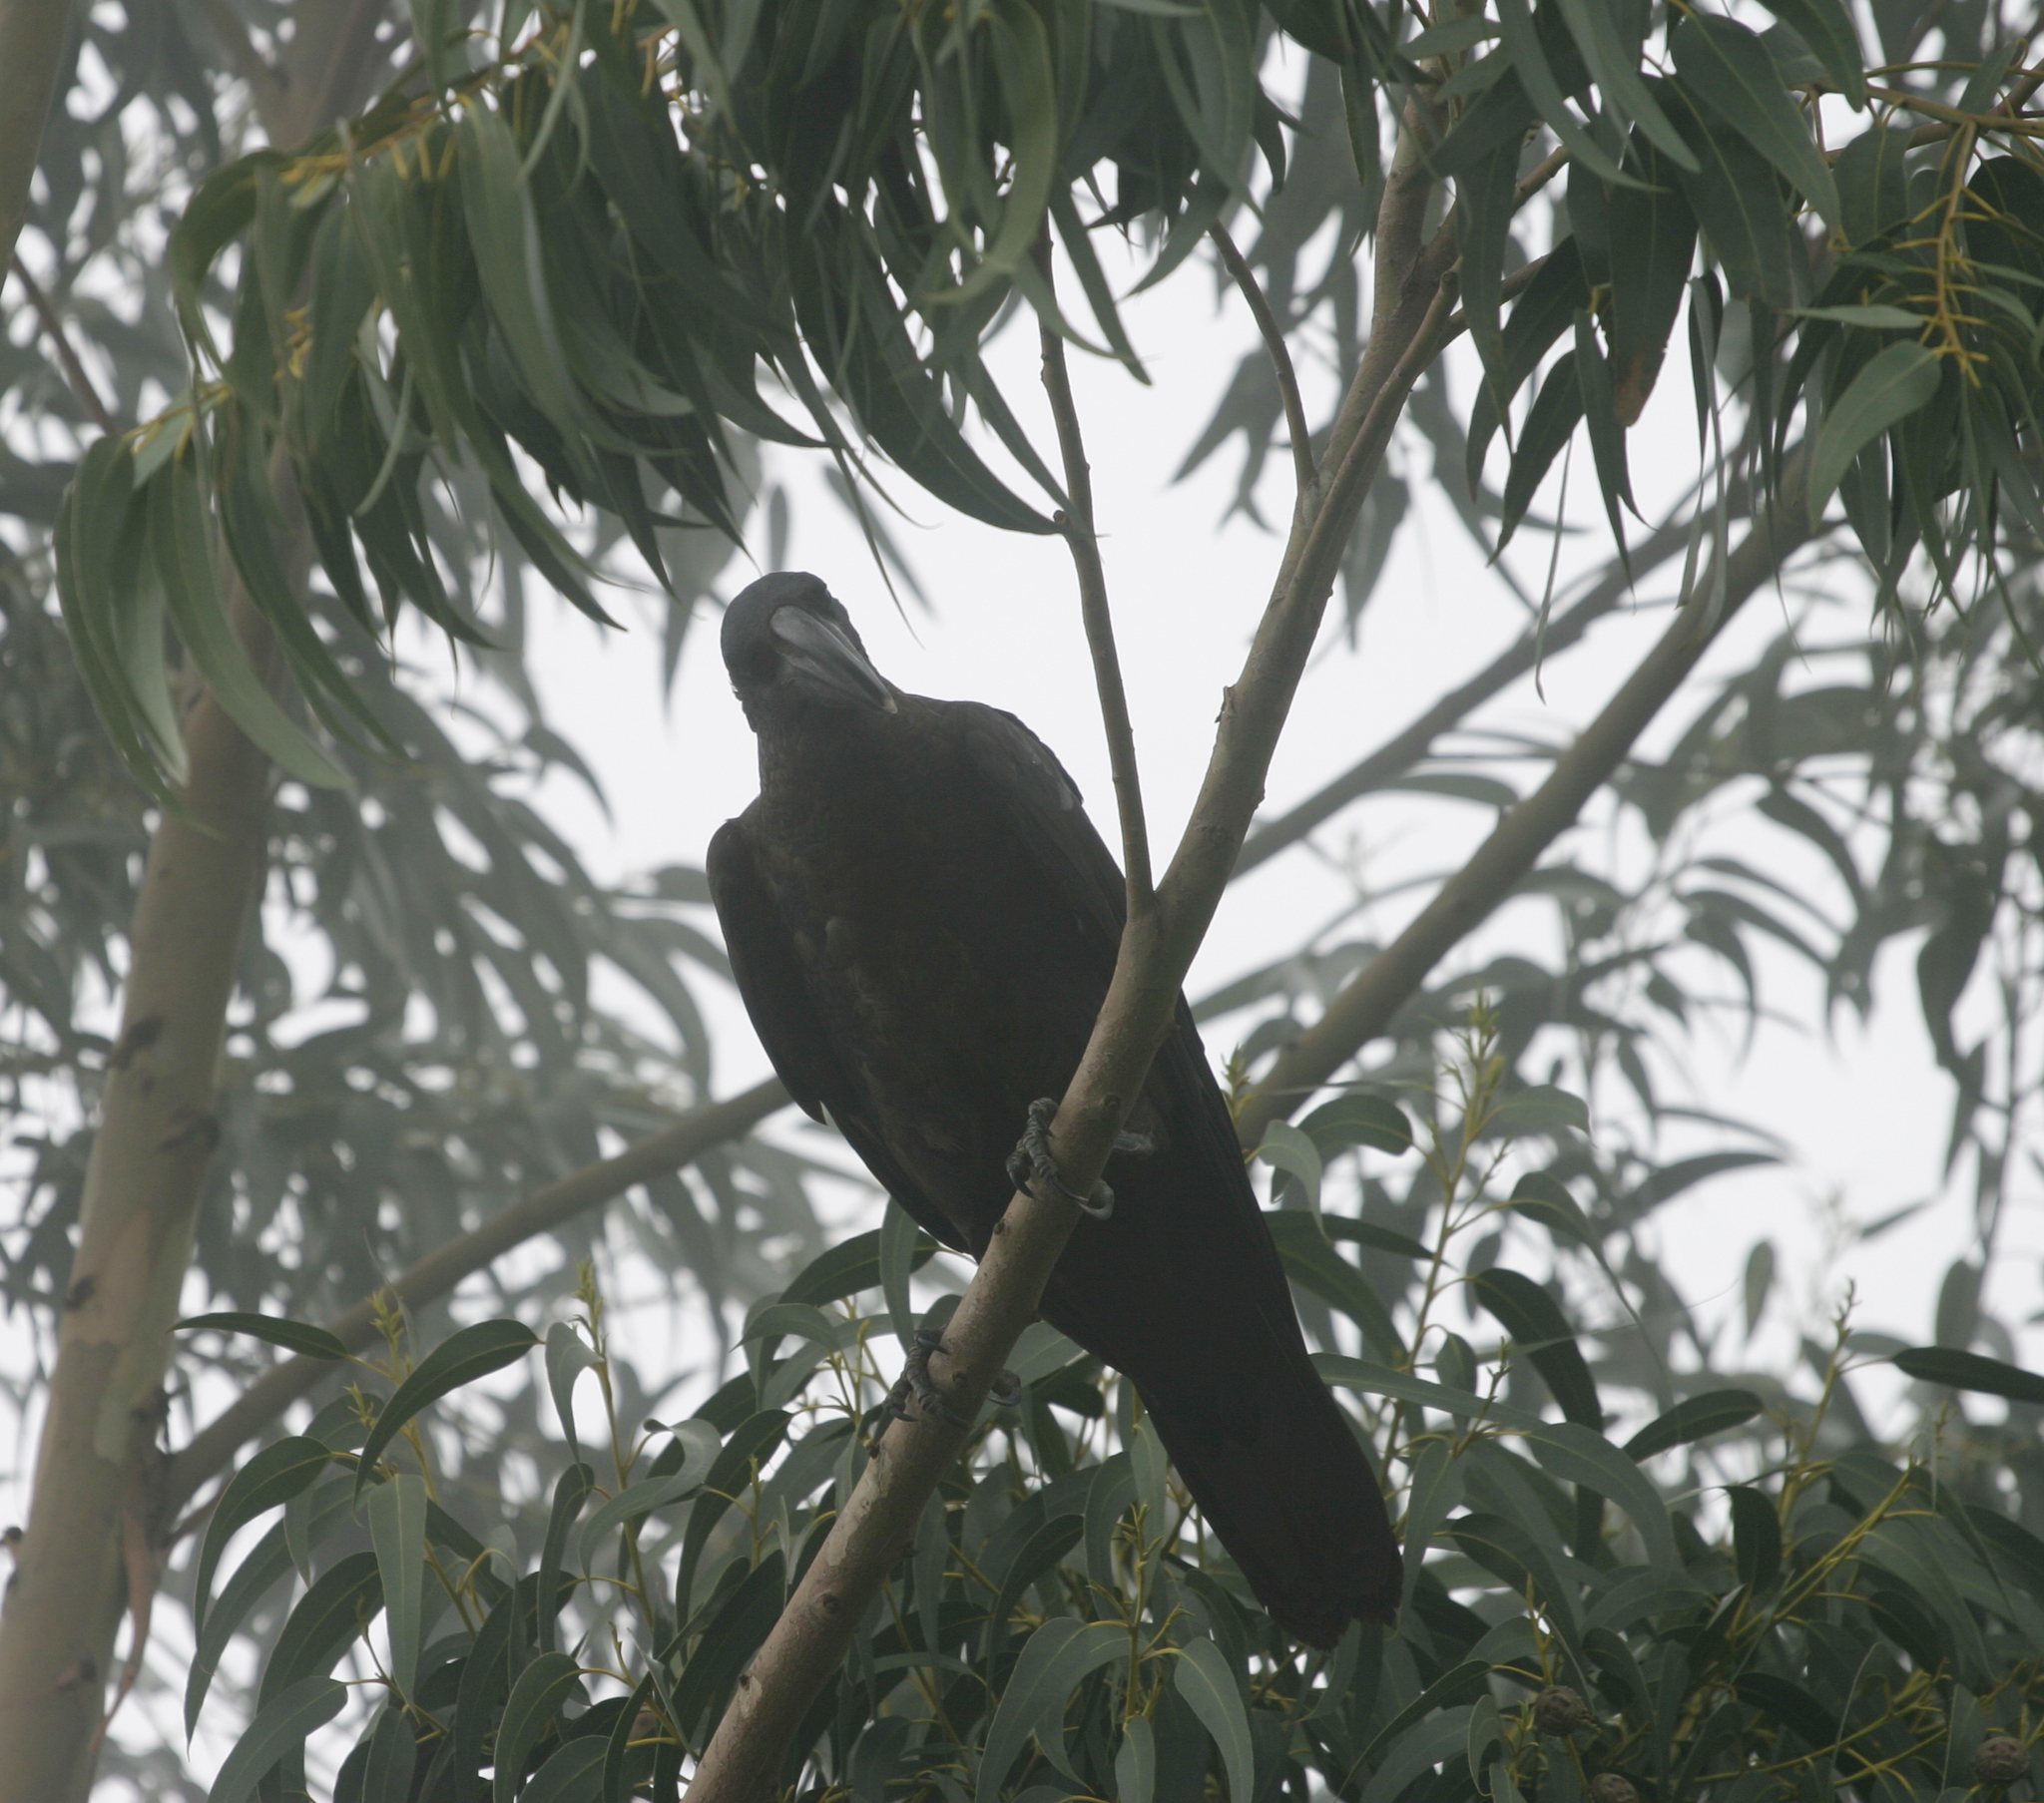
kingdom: Animalia
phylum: Chordata
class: Aves
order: Passeriformes
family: Corvidae
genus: Corvus
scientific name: Corvus crassirostris
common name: Thick-billed raven
